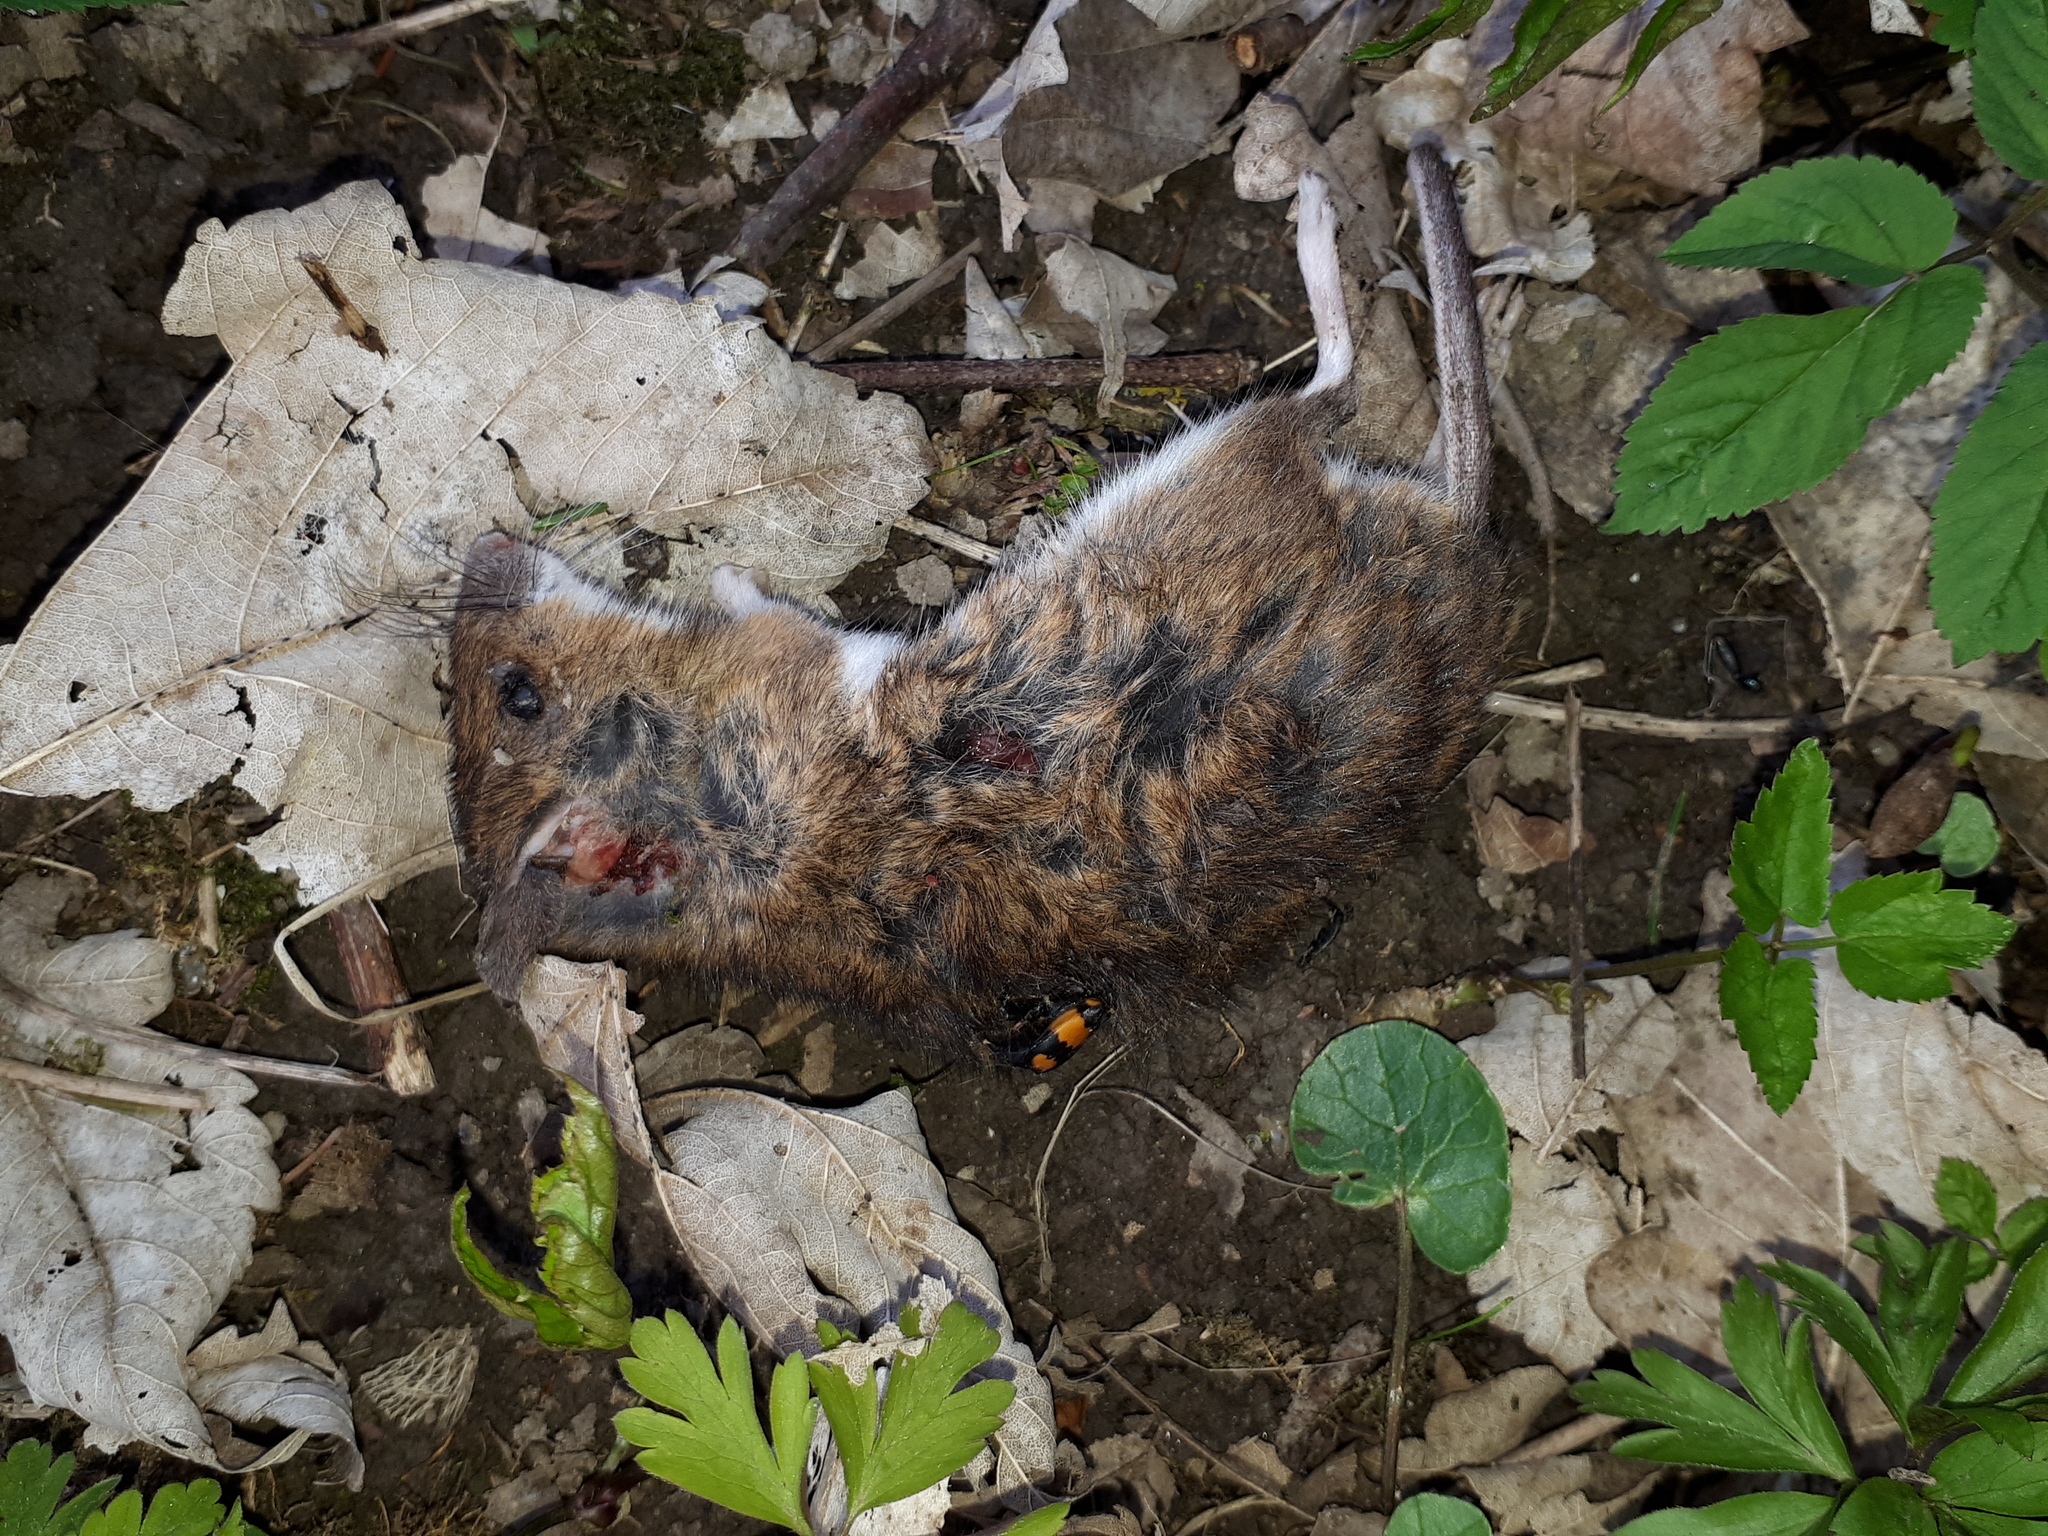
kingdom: Animalia
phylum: Chordata
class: Mammalia
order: Rodentia
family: Muridae
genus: Apodemus
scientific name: Apodemus flavicollis
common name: Yellow-necked field mouse
